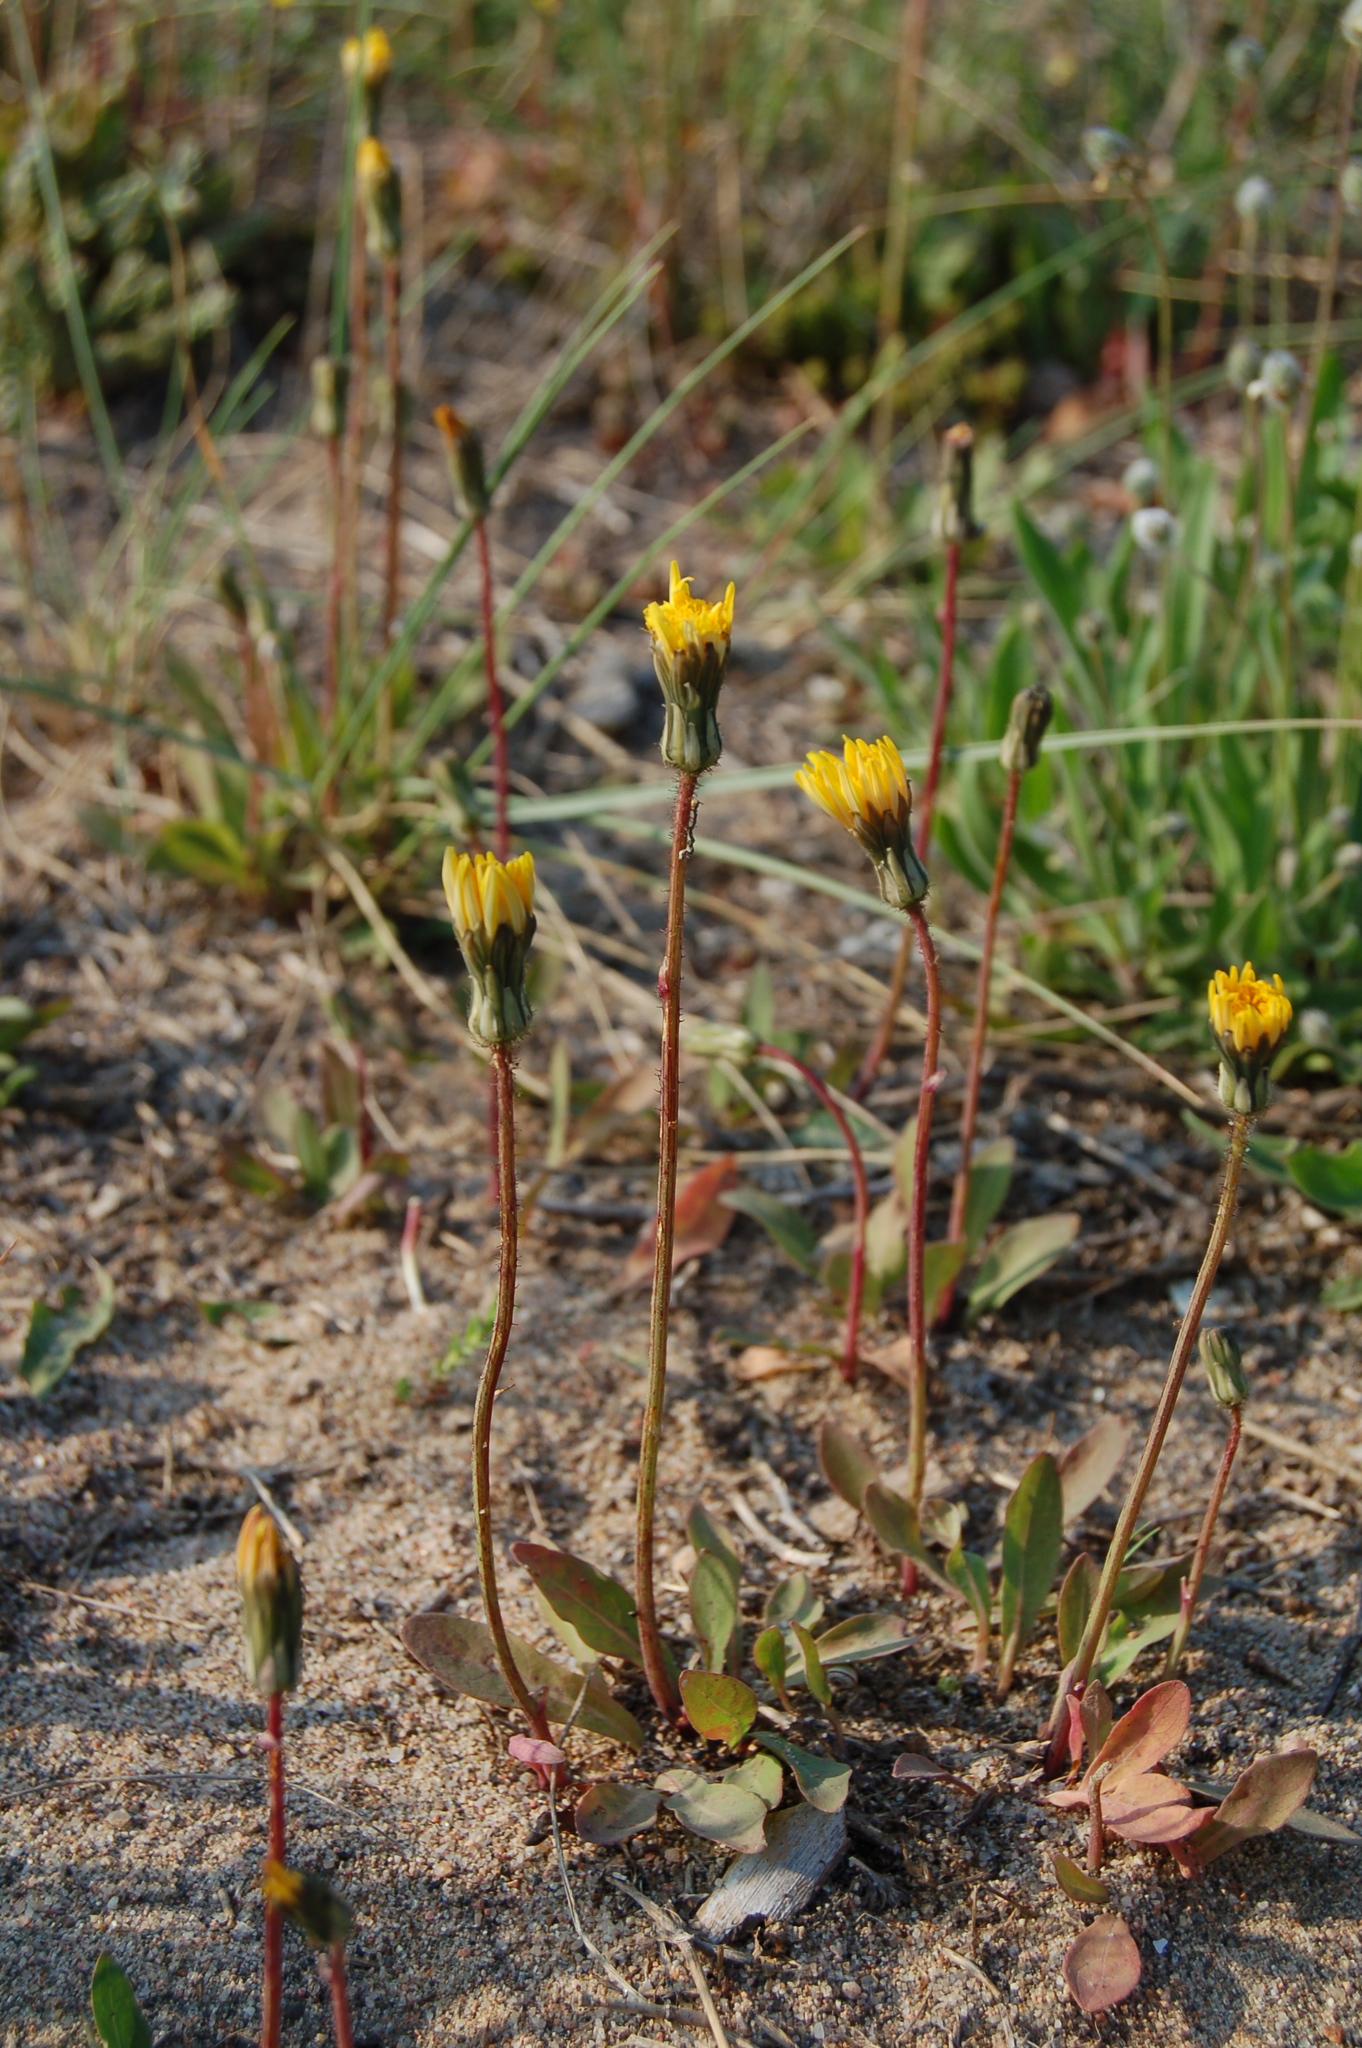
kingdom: Plantae
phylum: Tracheophyta
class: Magnoliopsida
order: Asterales
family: Asteraceae
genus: Aetheorhiza
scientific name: Aetheorhiza bulbosa
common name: Tuberous hawk's-beard
